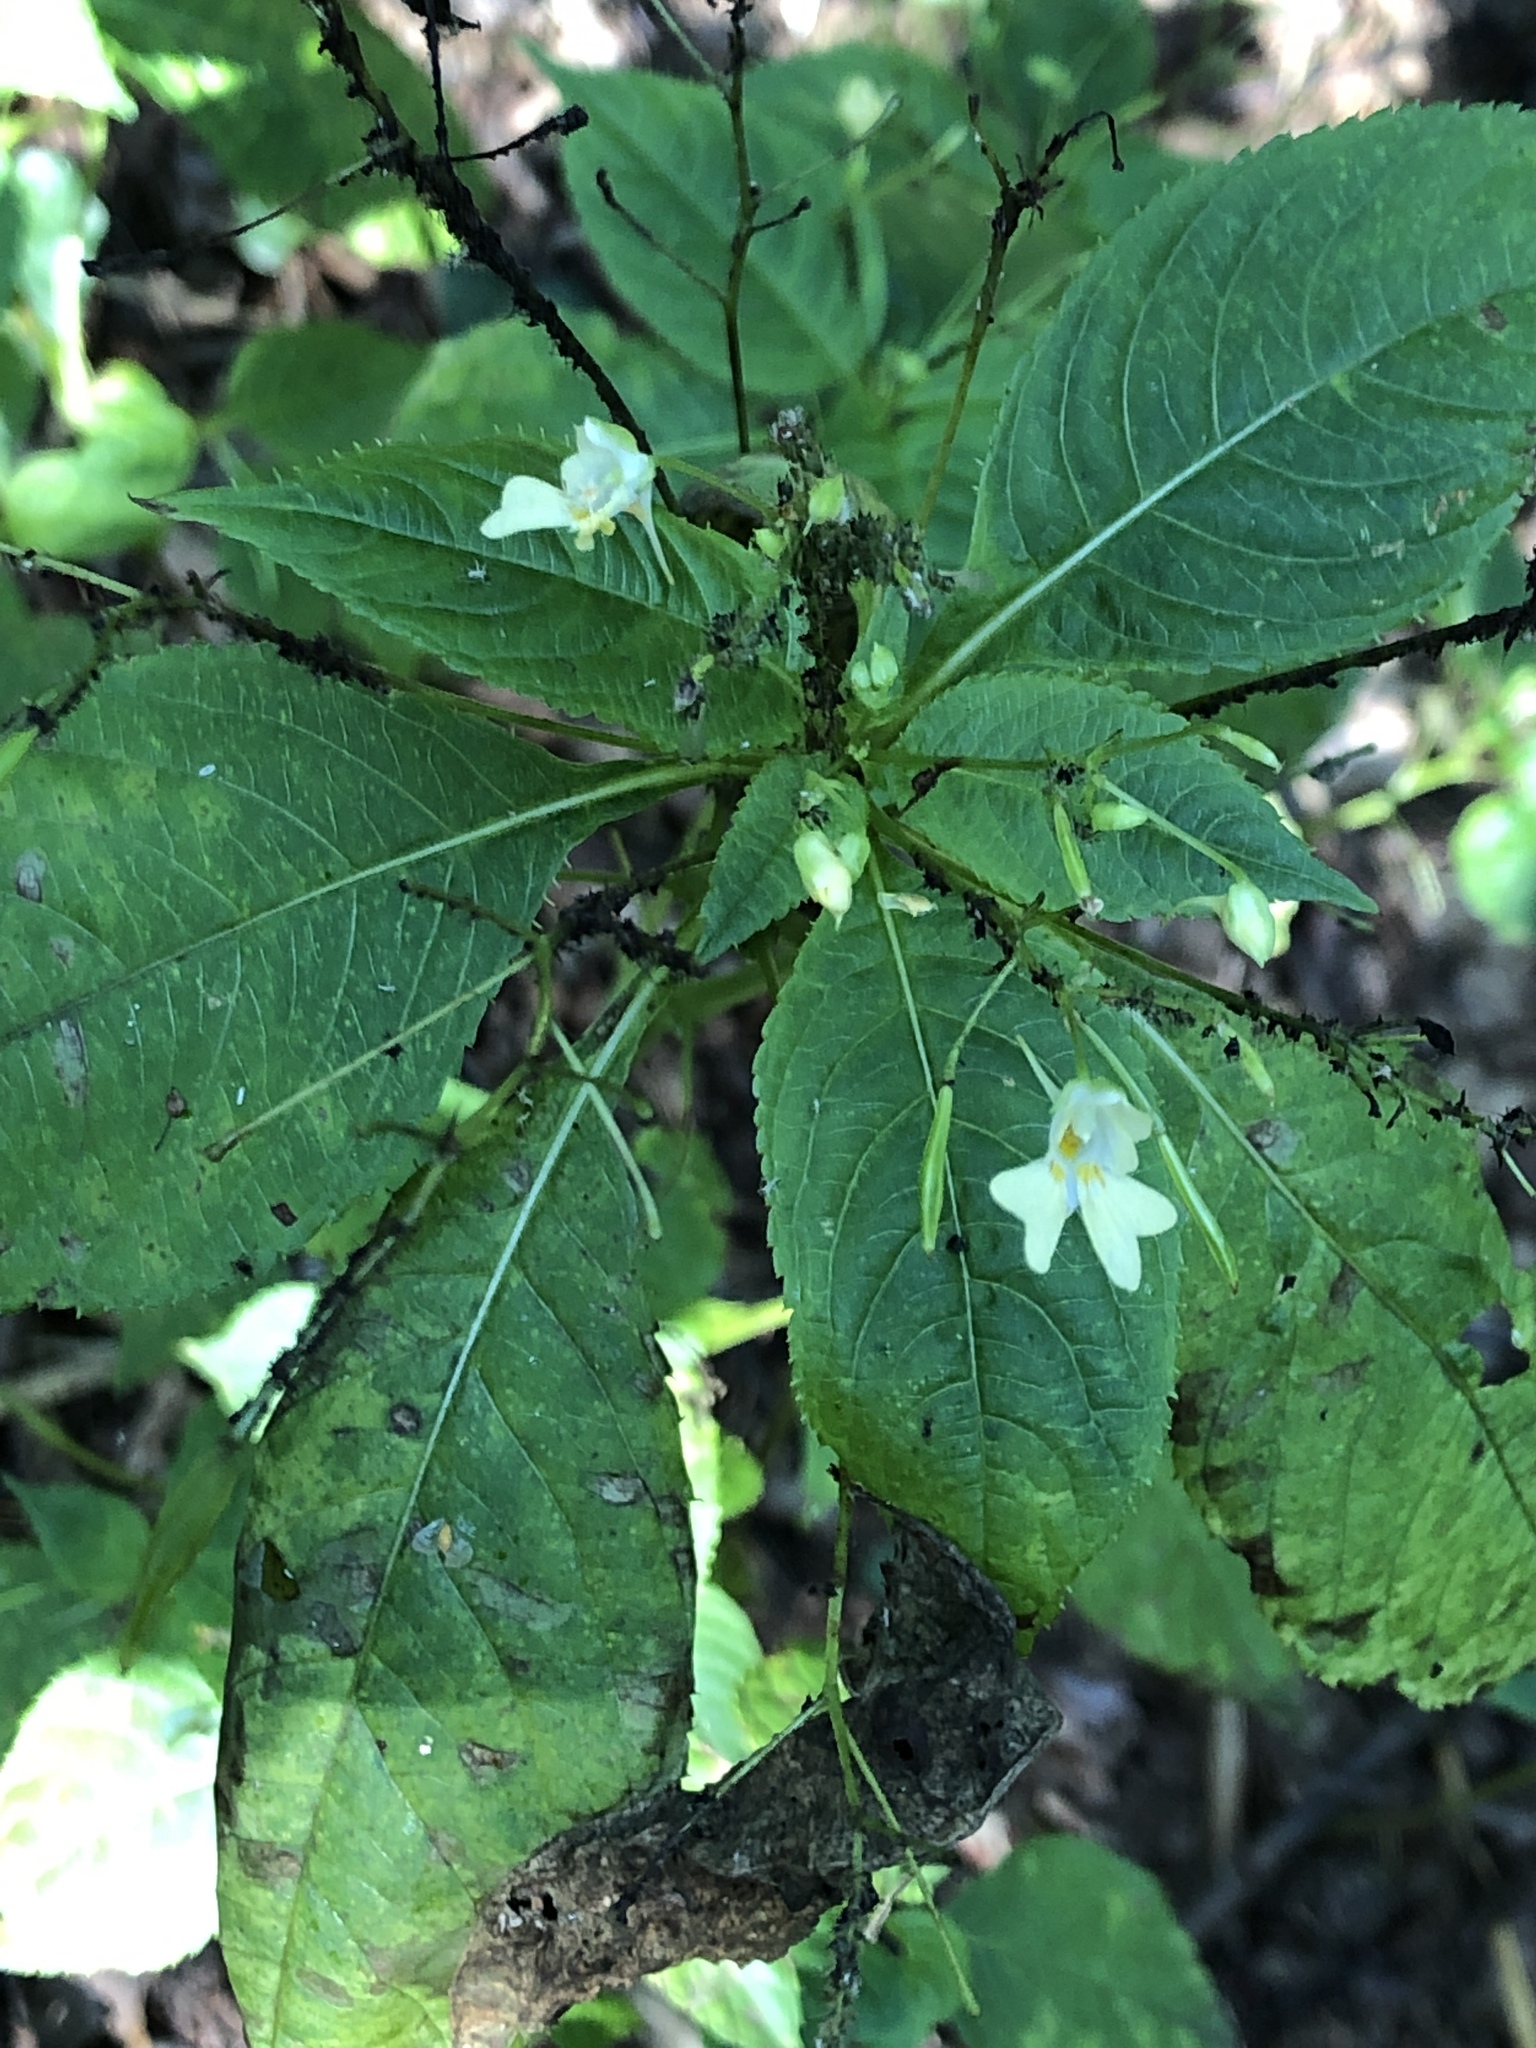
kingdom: Plantae
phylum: Tracheophyta
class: Magnoliopsida
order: Ericales
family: Balsaminaceae
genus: Impatiens
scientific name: Impatiens parviflora
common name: Small balsam
